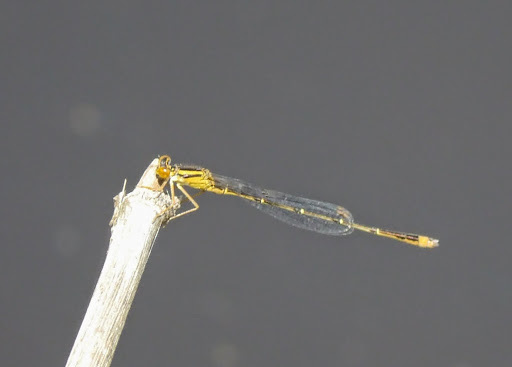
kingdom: Animalia
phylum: Arthropoda
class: Insecta
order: Odonata
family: Coenagrionidae
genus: Enallagma
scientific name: Enallagma signatum
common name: Orange bluet
